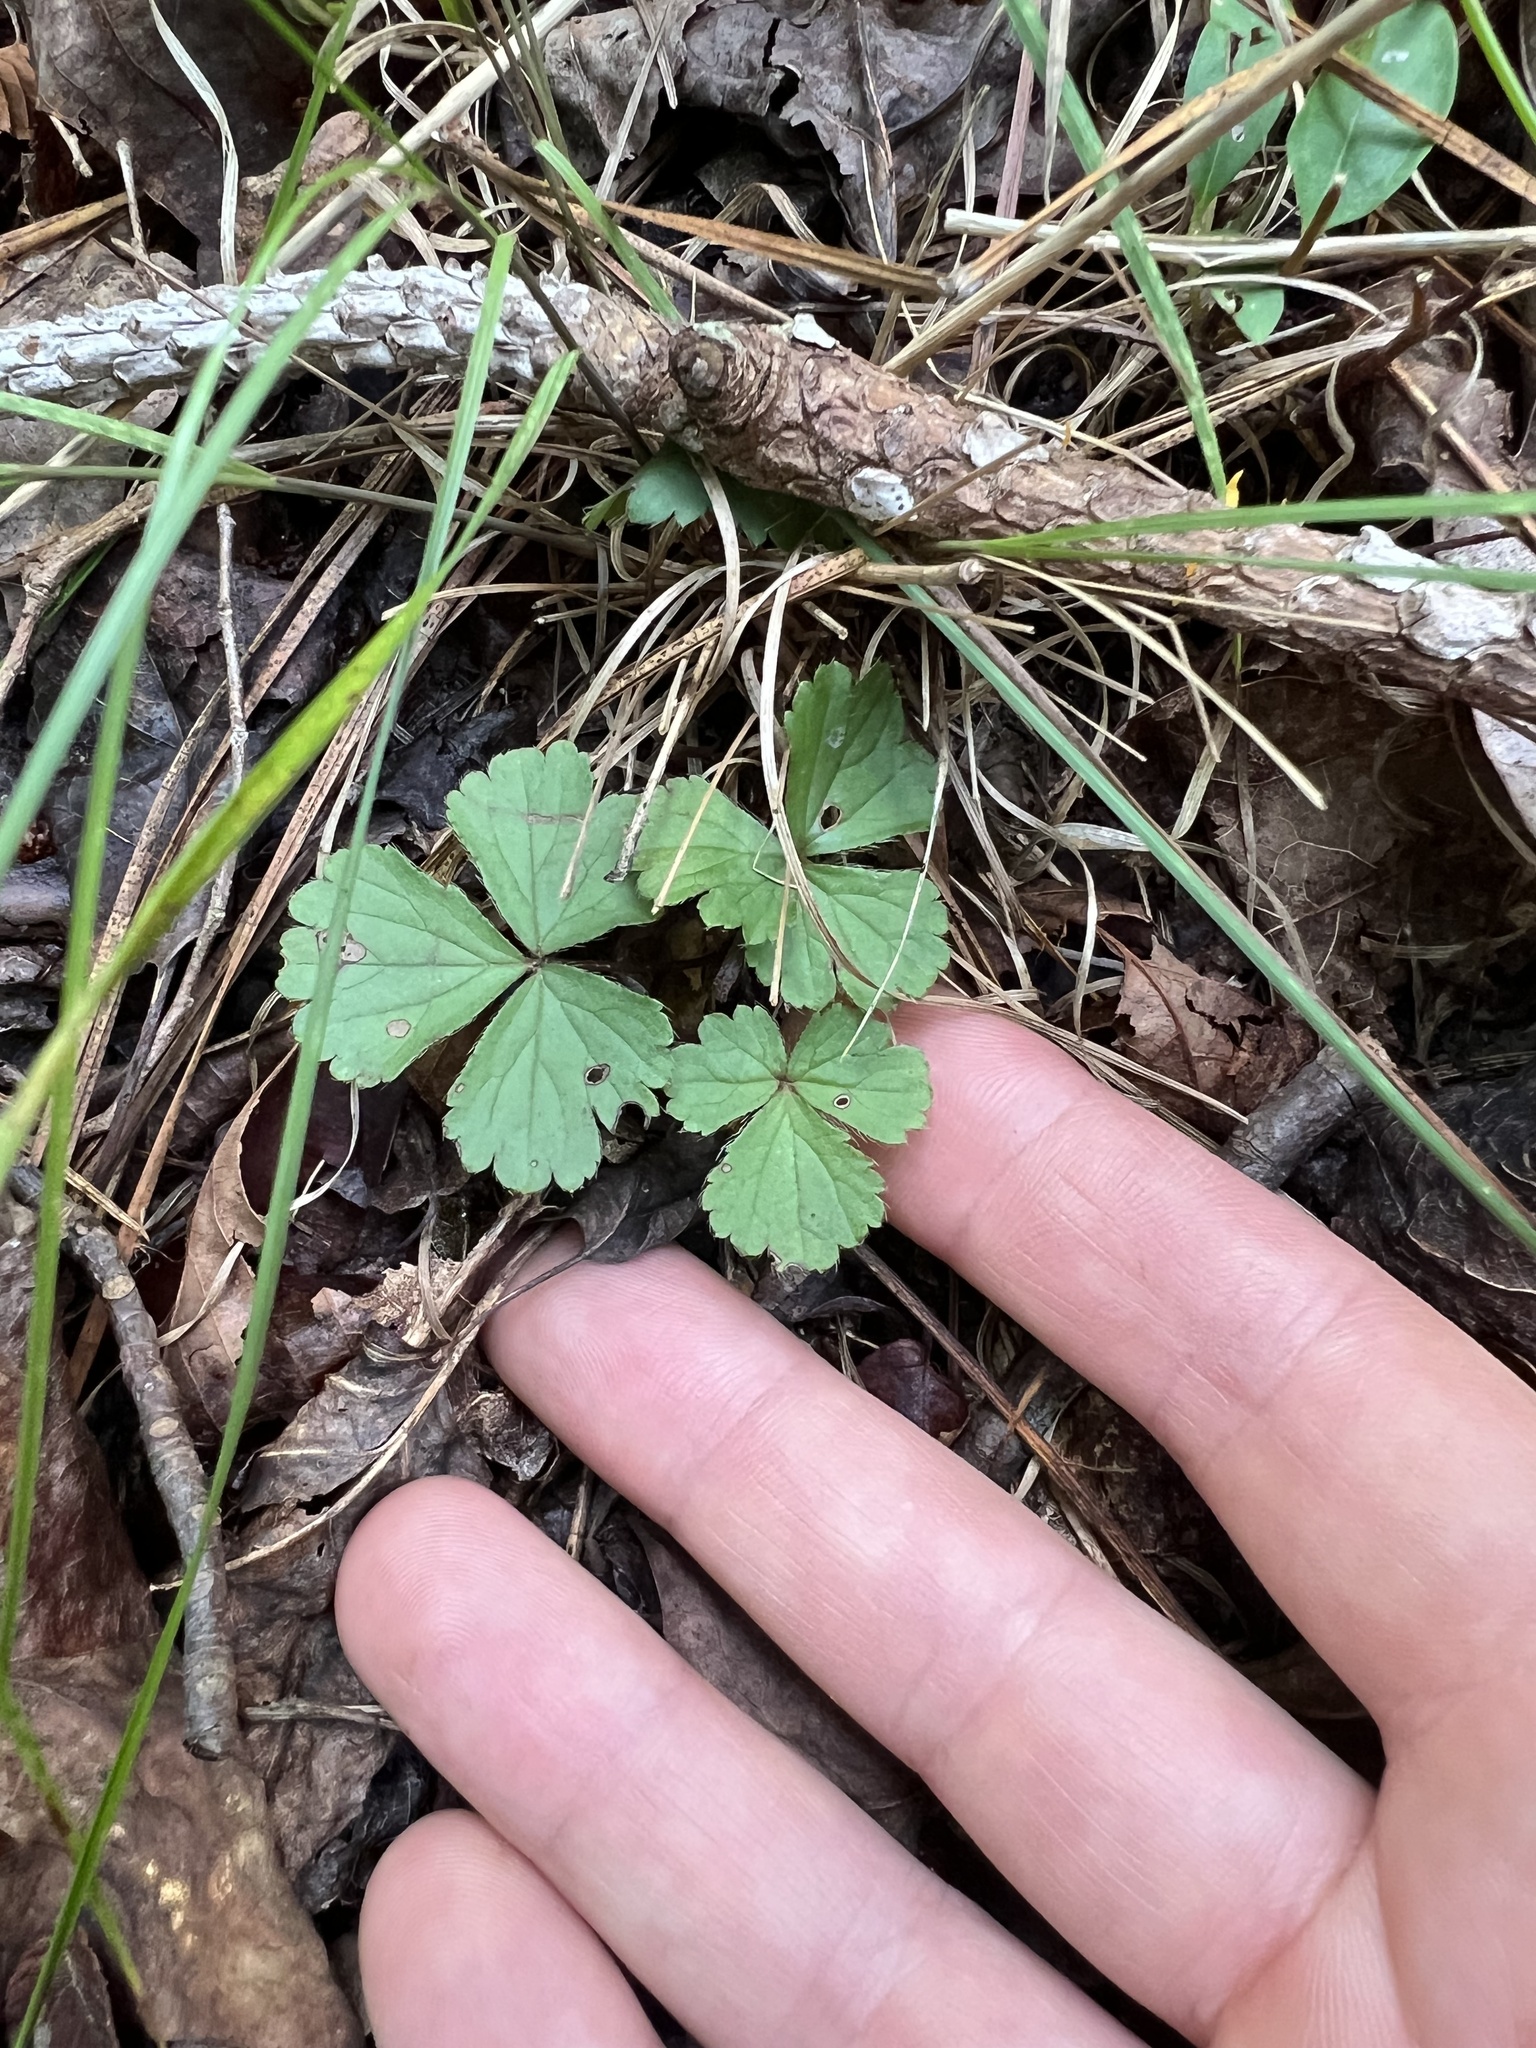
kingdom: Plantae
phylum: Tracheophyta
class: Magnoliopsida
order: Rosales
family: Rosaceae
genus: Geum
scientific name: Geum fragarioides
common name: Appalachian barren strawberry
